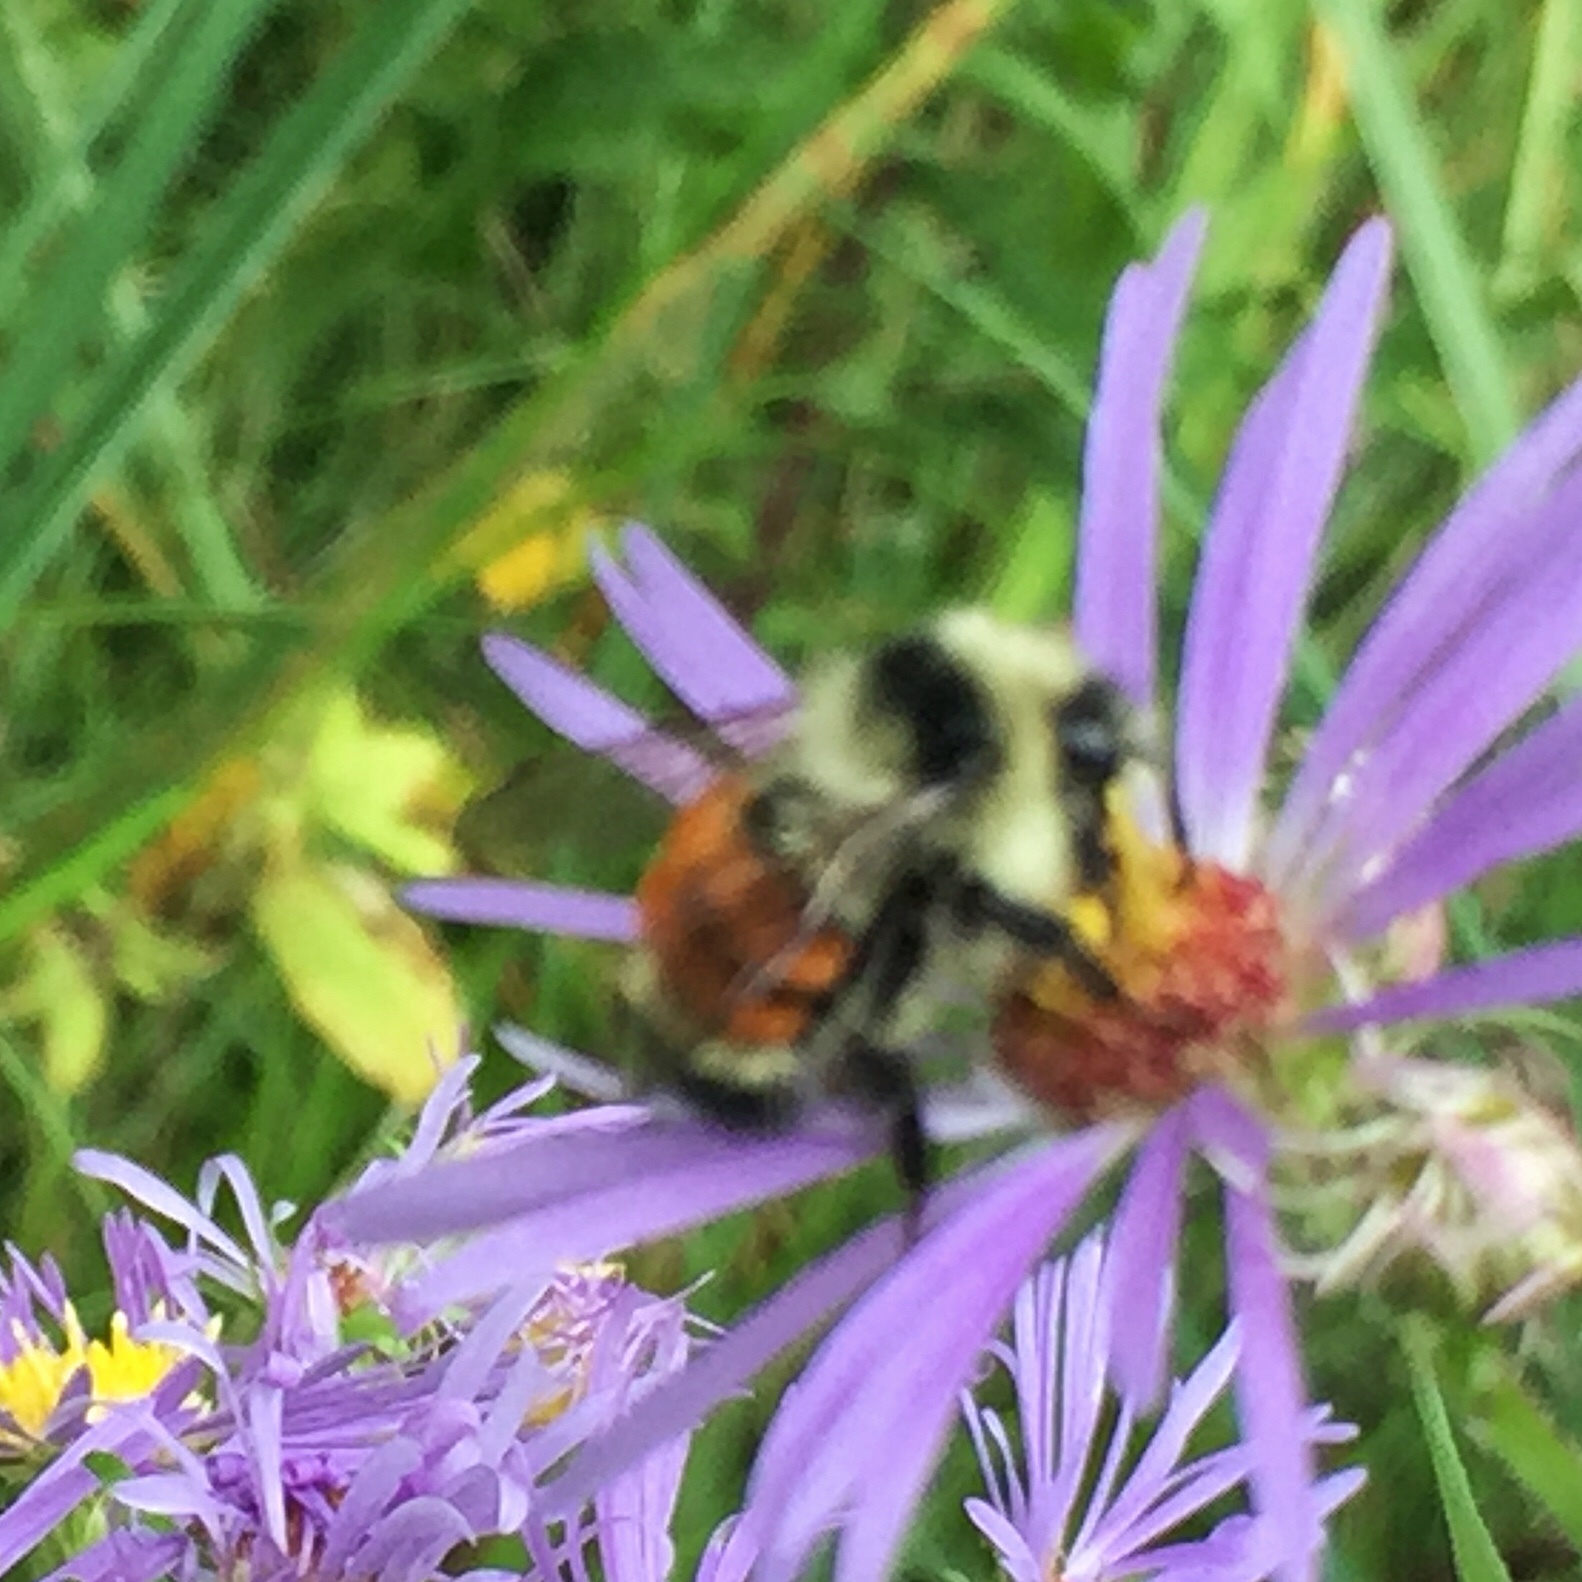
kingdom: Animalia
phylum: Arthropoda
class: Insecta
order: Hymenoptera
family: Apidae
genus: Bombus
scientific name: Bombus ternarius
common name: Tri-colored bumble bee
